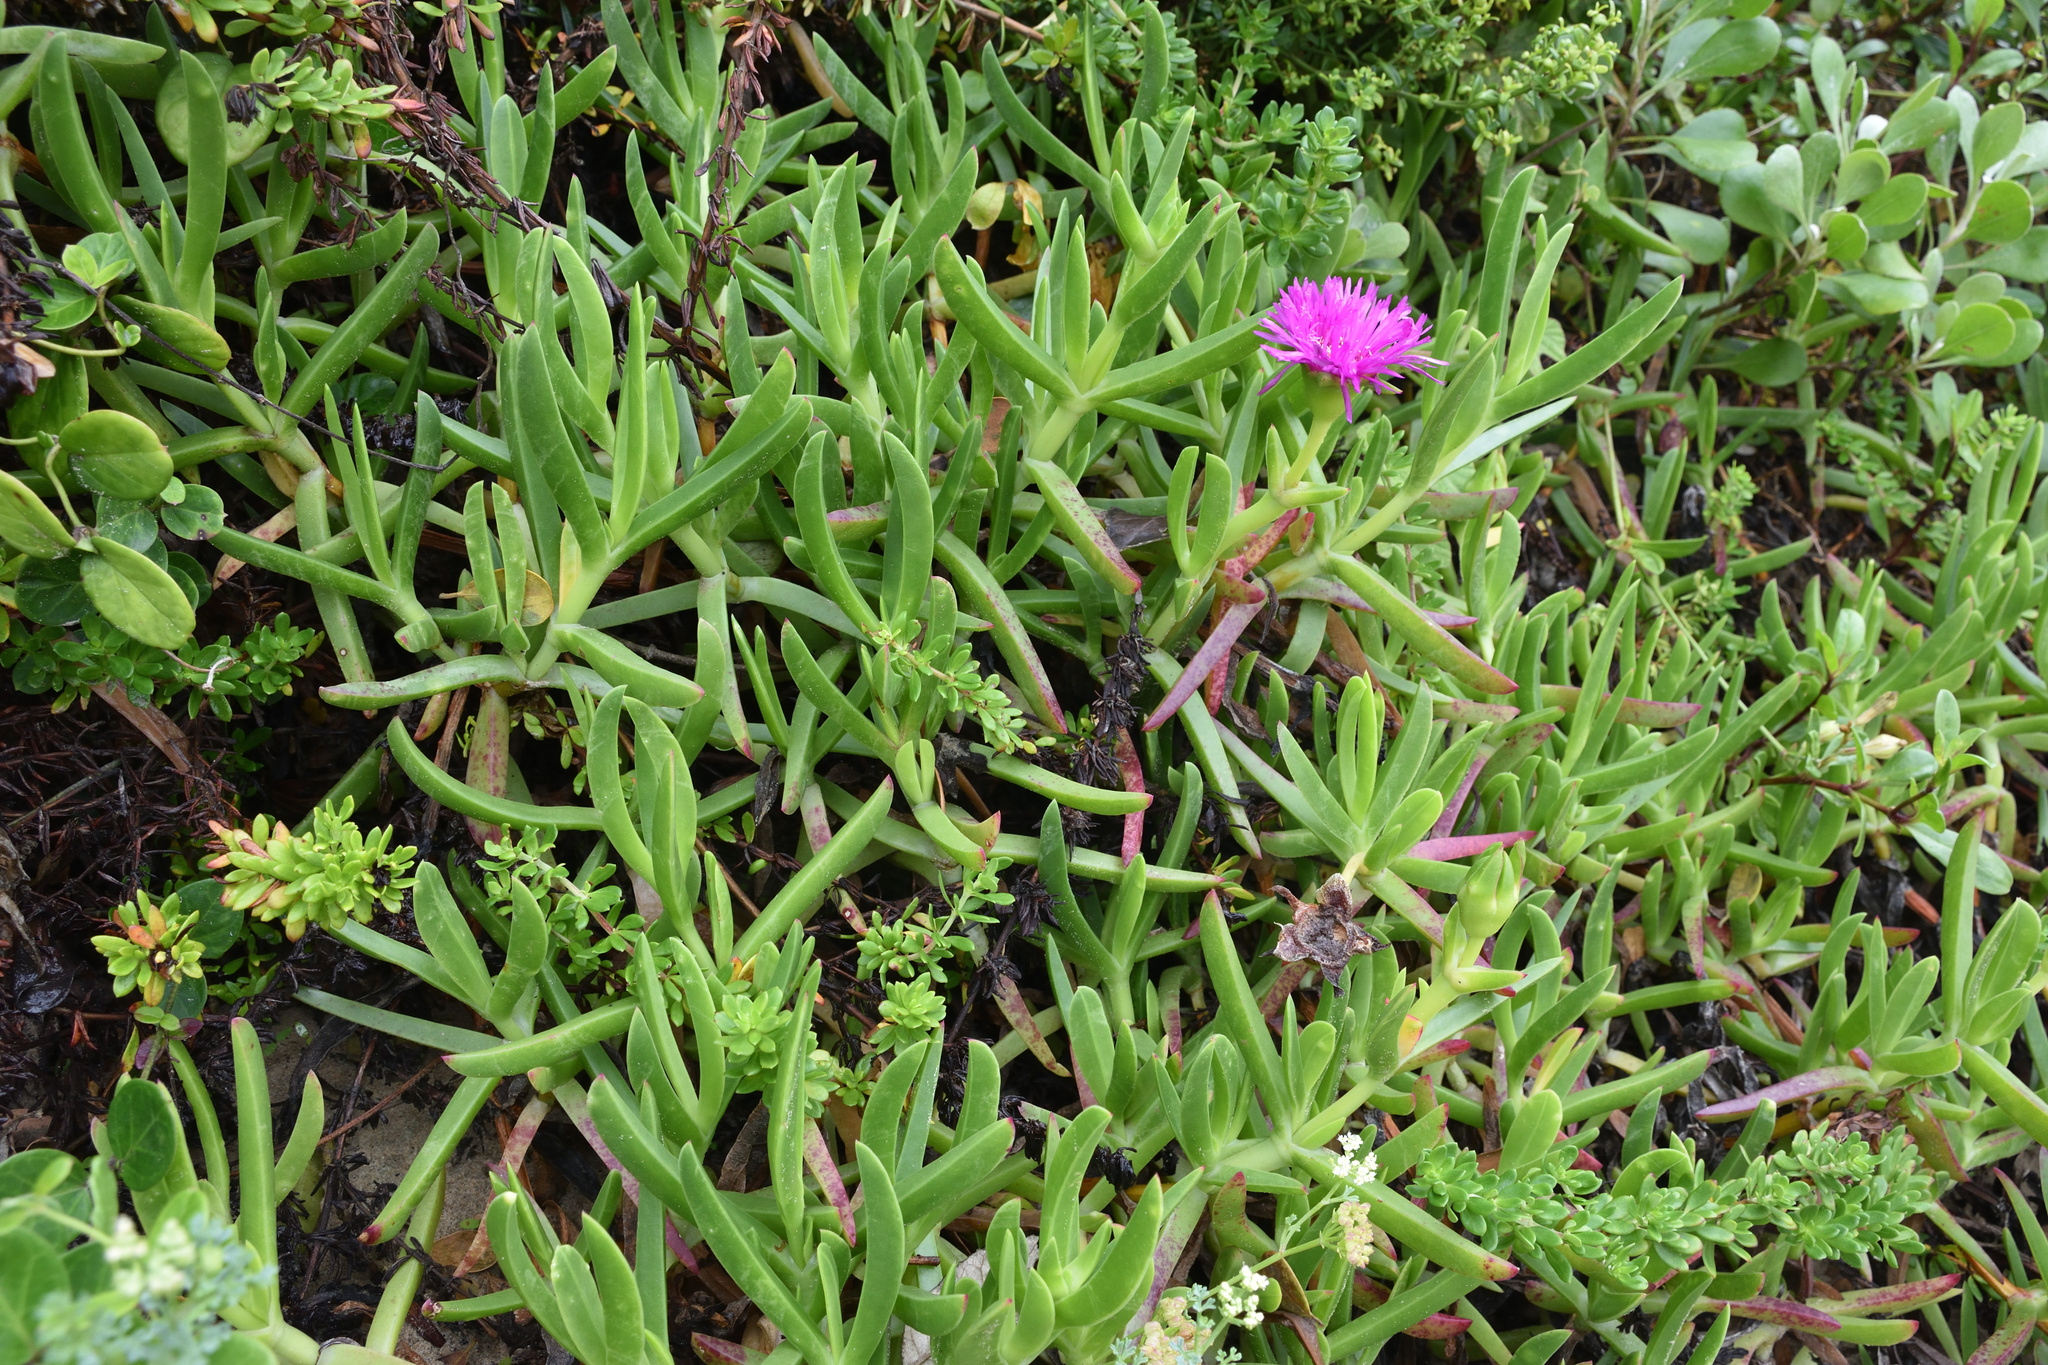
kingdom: Plantae
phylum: Tracheophyta
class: Magnoliopsida
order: Caryophyllales
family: Aizoaceae
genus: Carpobrotus
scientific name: Carpobrotus deliciosus
